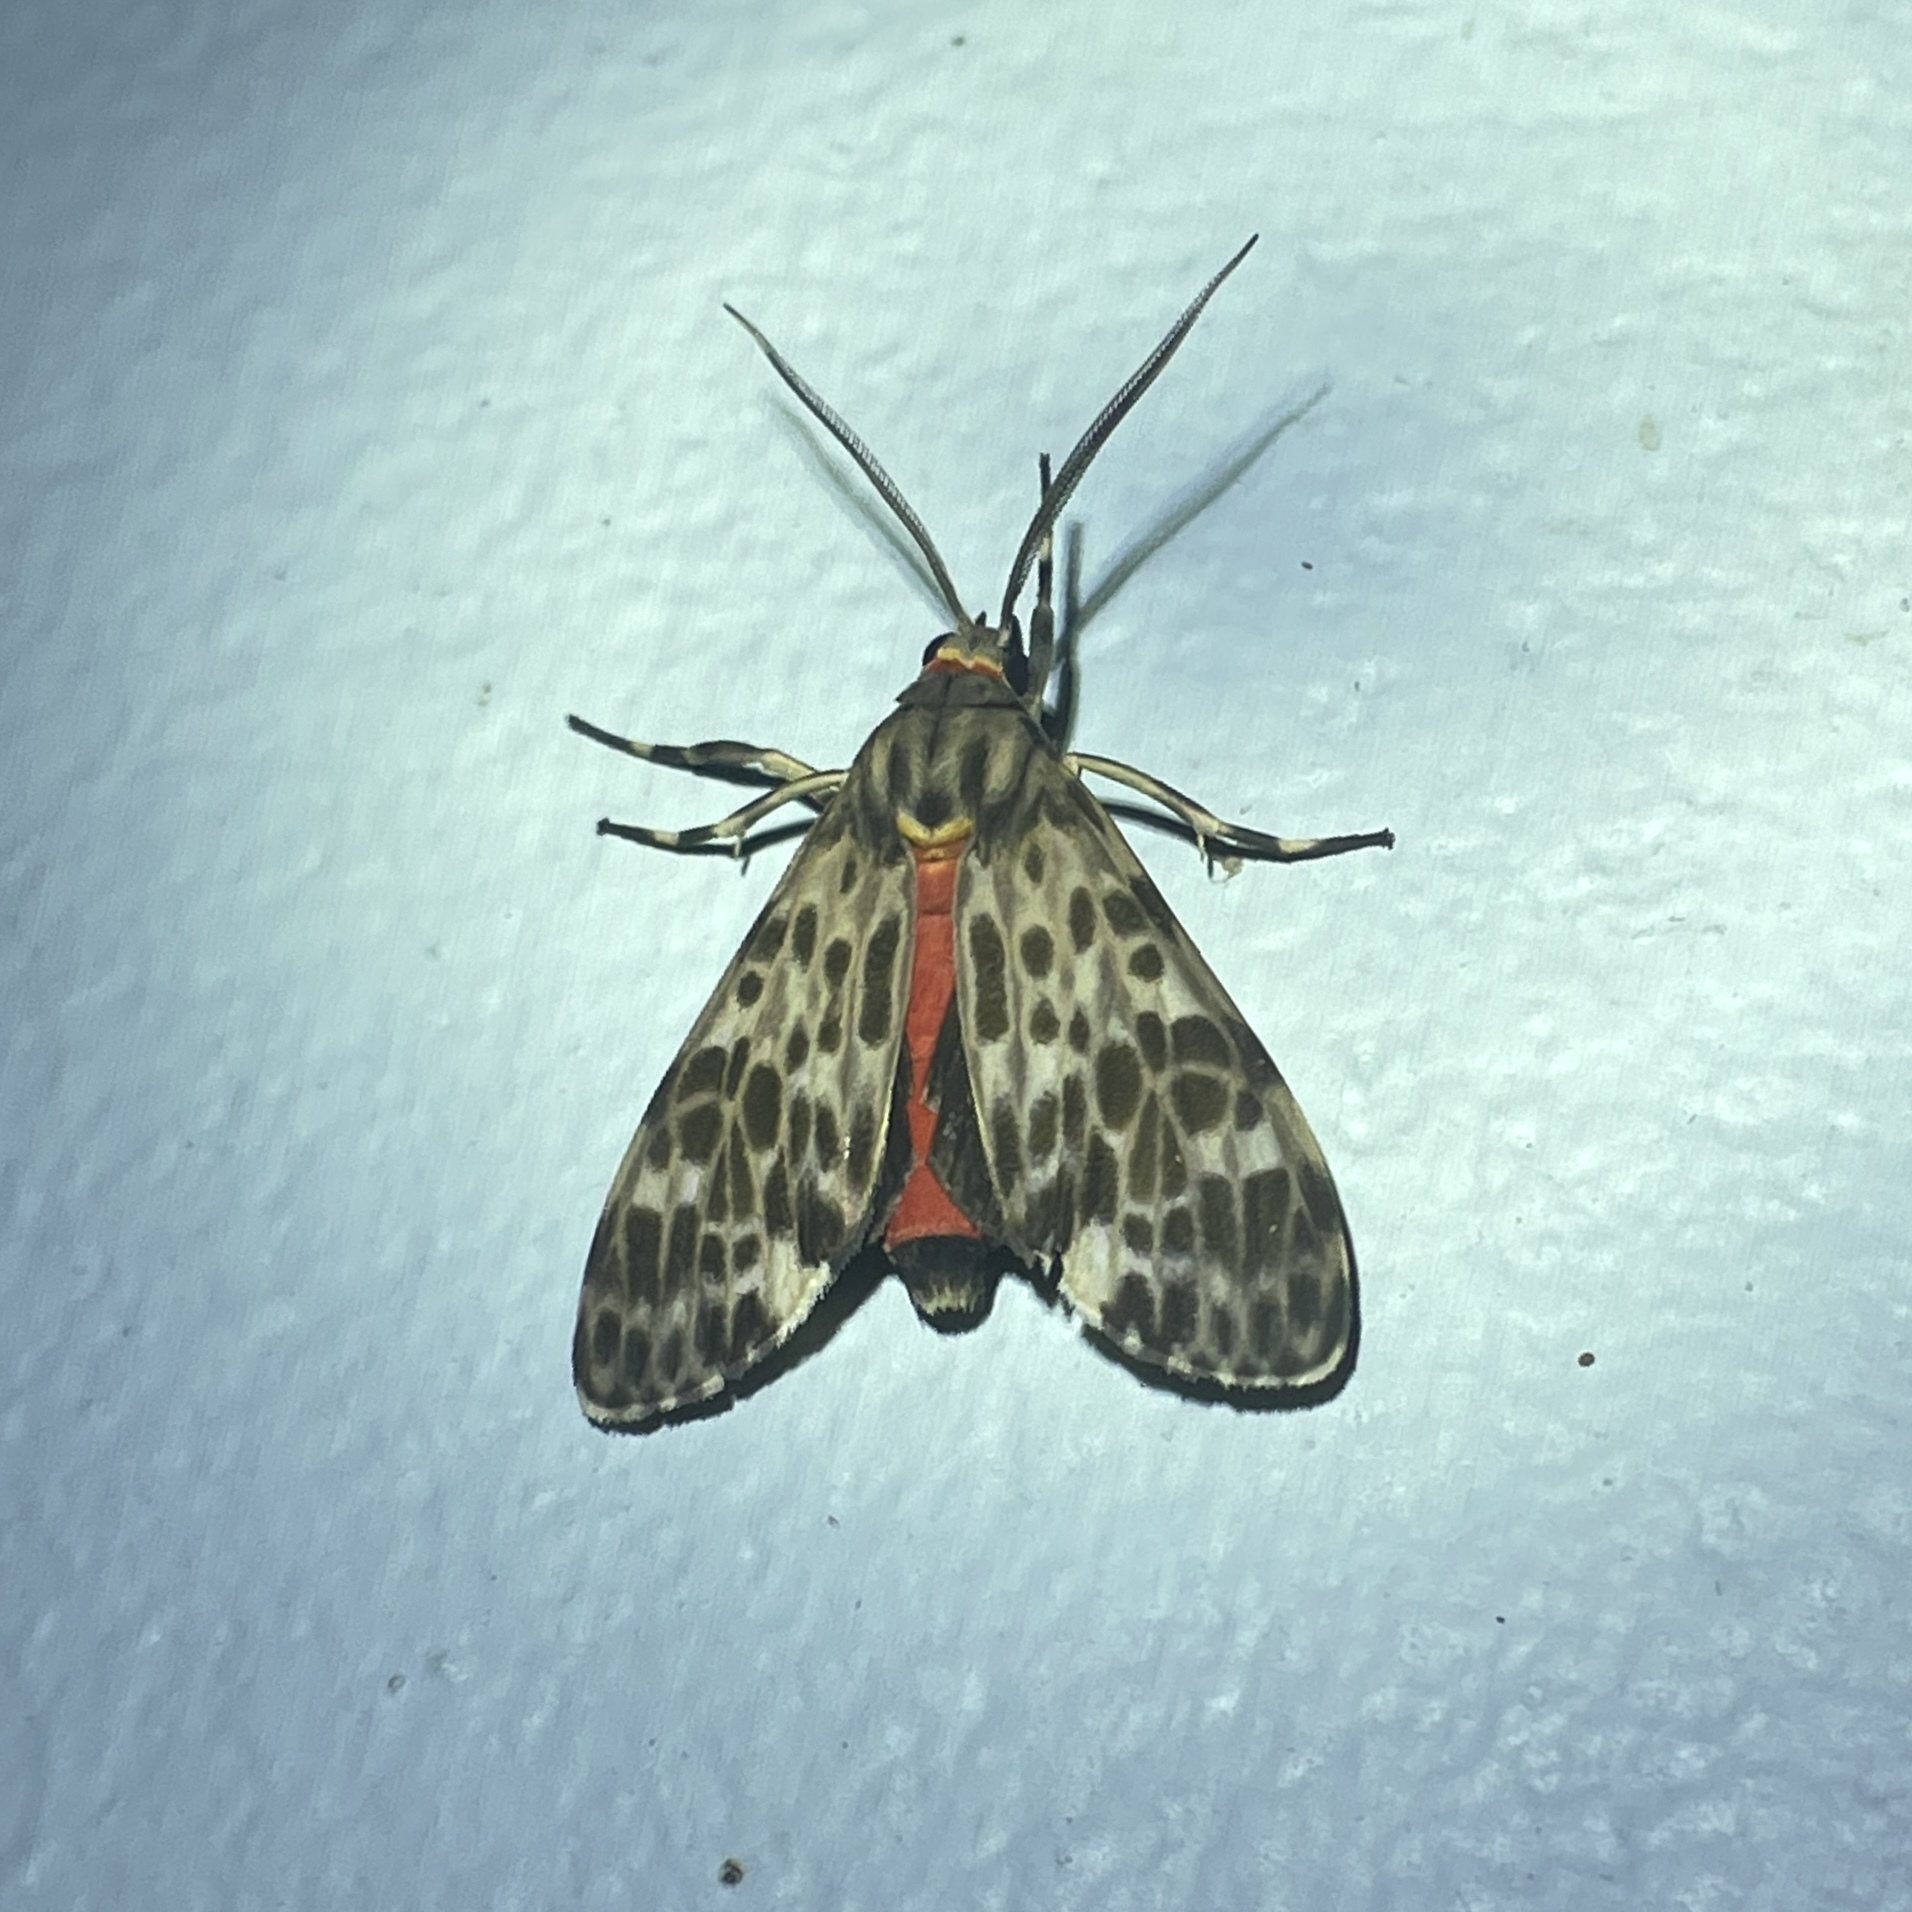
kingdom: Animalia
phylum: Arthropoda
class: Insecta
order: Lepidoptera
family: Erebidae
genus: Eucereon
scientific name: Eucereon punctata
